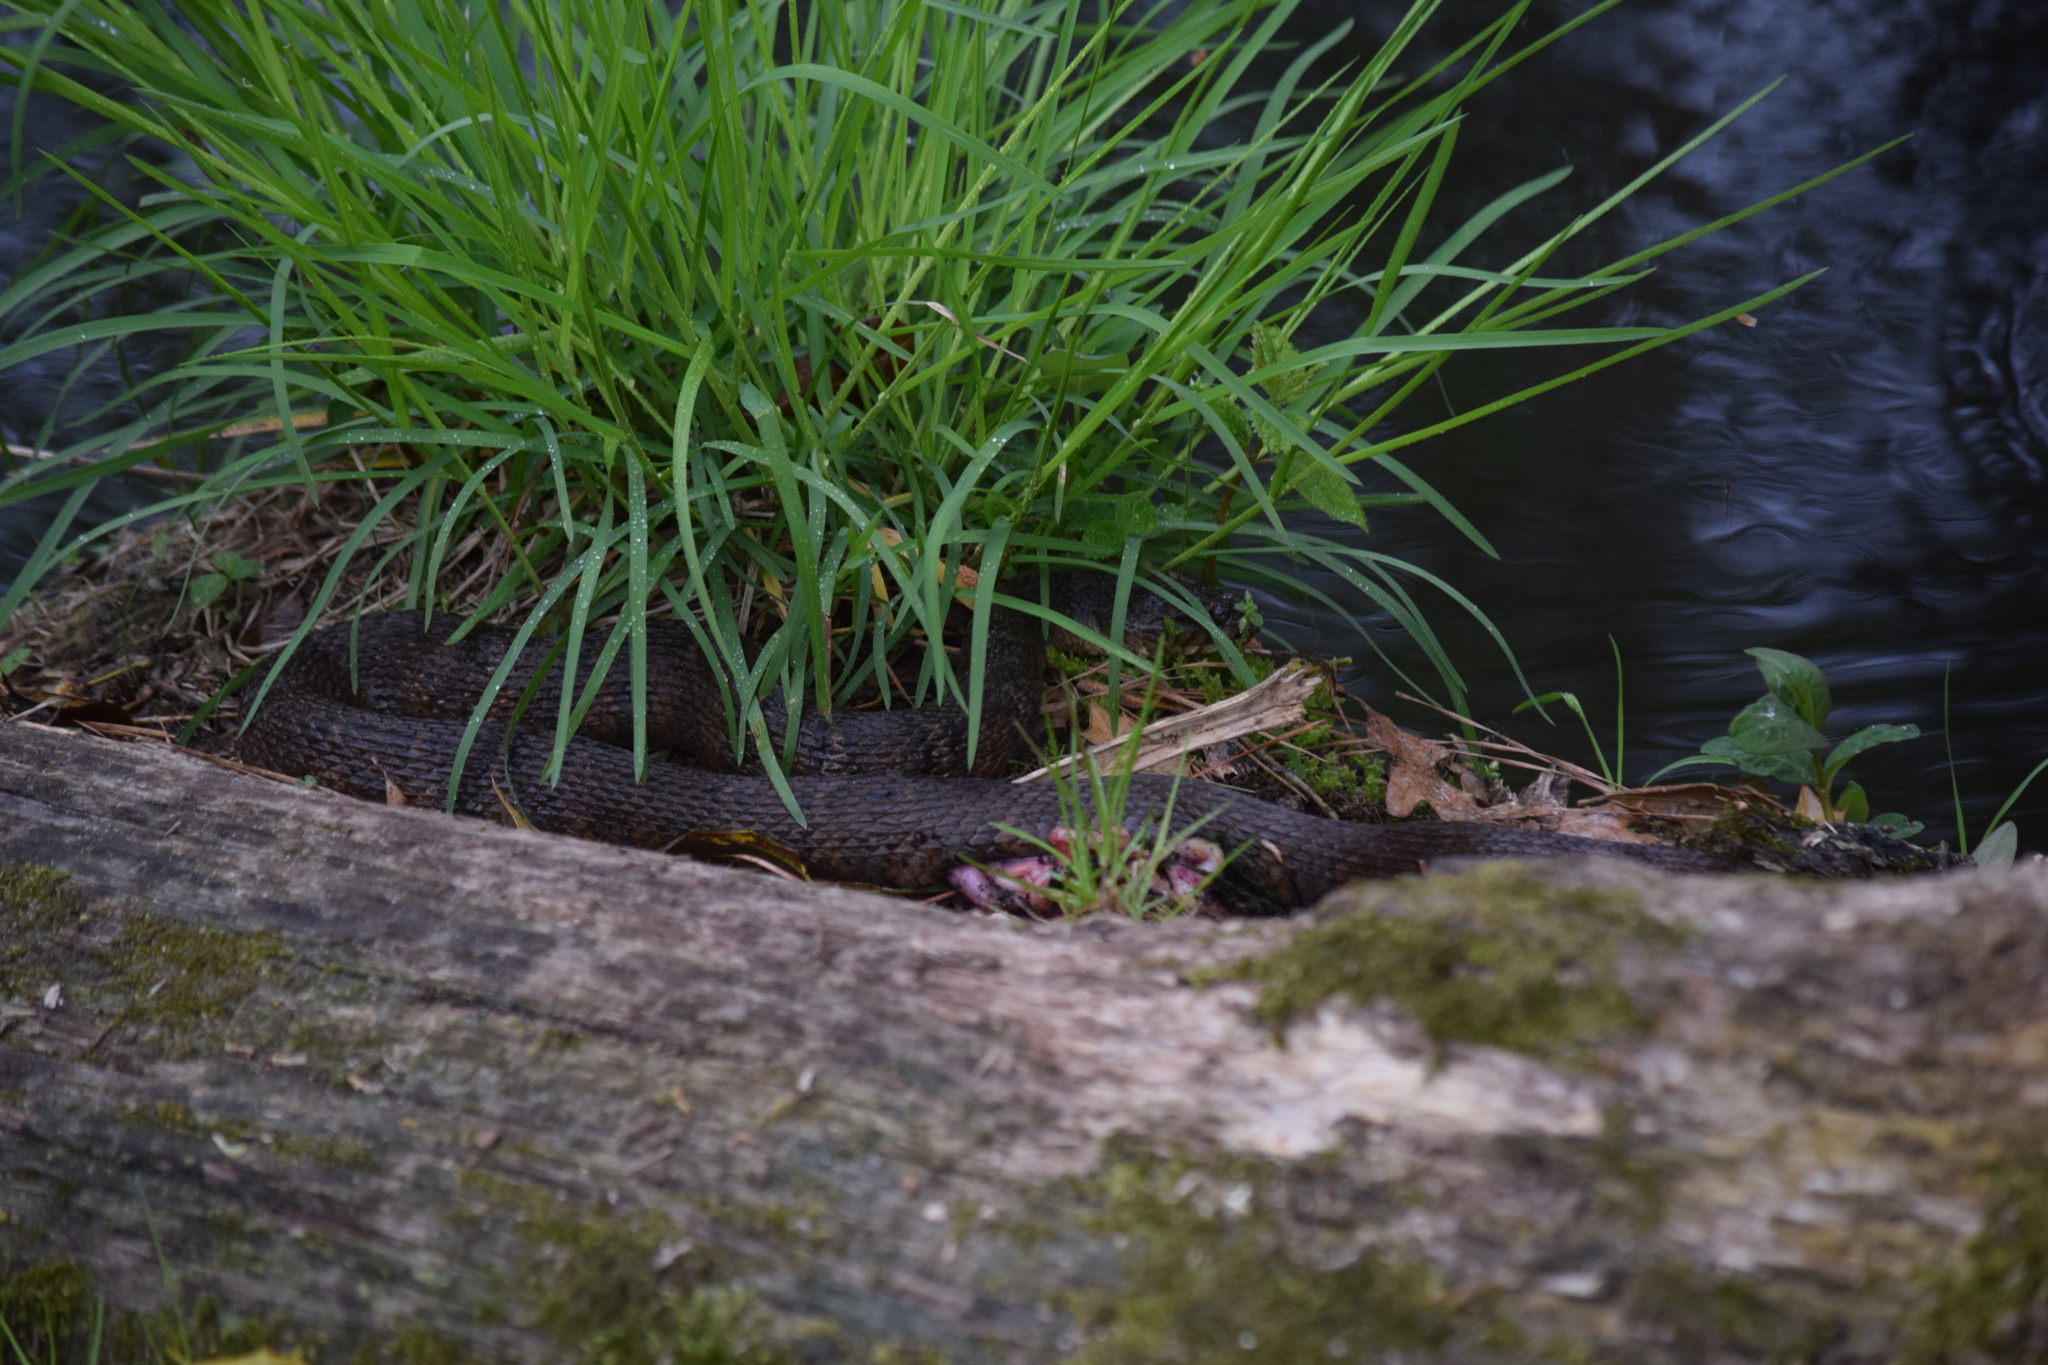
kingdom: Animalia
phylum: Chordata
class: Squamata
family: Colubridae
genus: Nerodia
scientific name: Nerodia sipedon
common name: Northern water snake
